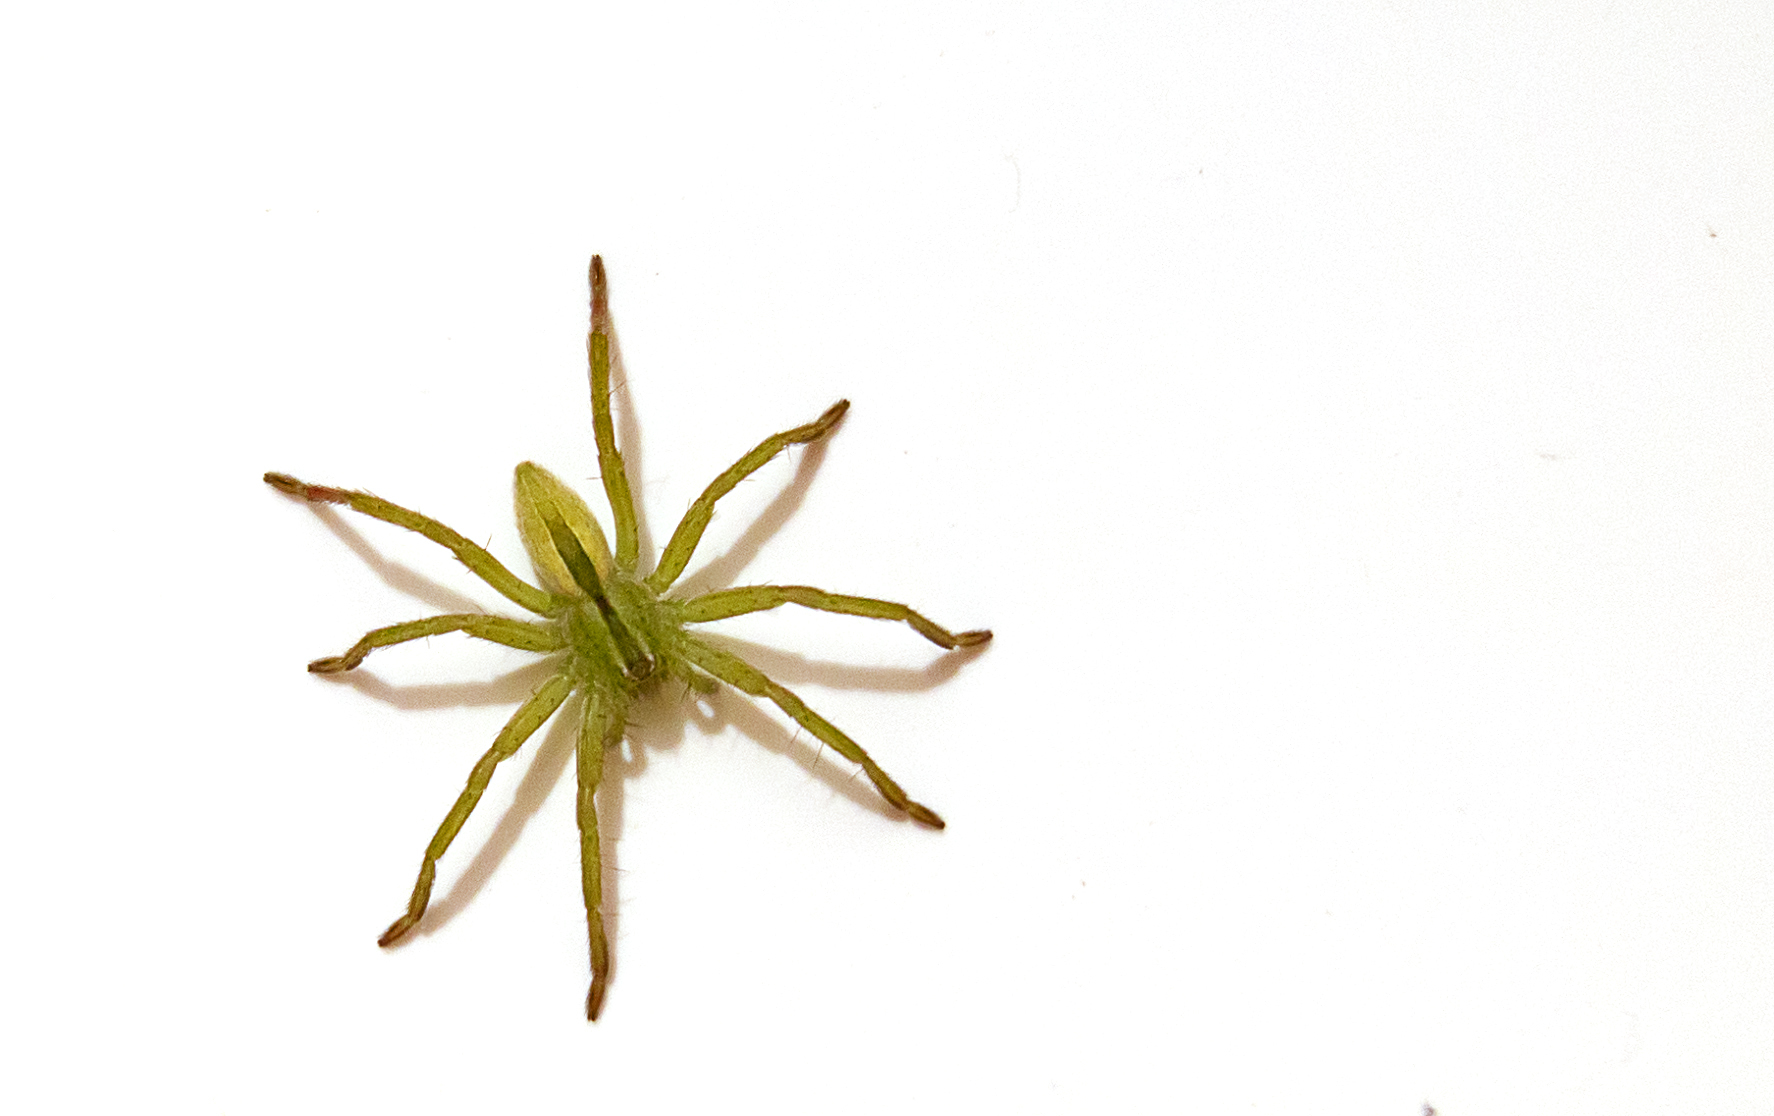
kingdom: Animalia
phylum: Arthropoda
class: Arachnida
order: Araneae
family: Sparassidae
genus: Micrommata
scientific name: Micrommata ligurina
